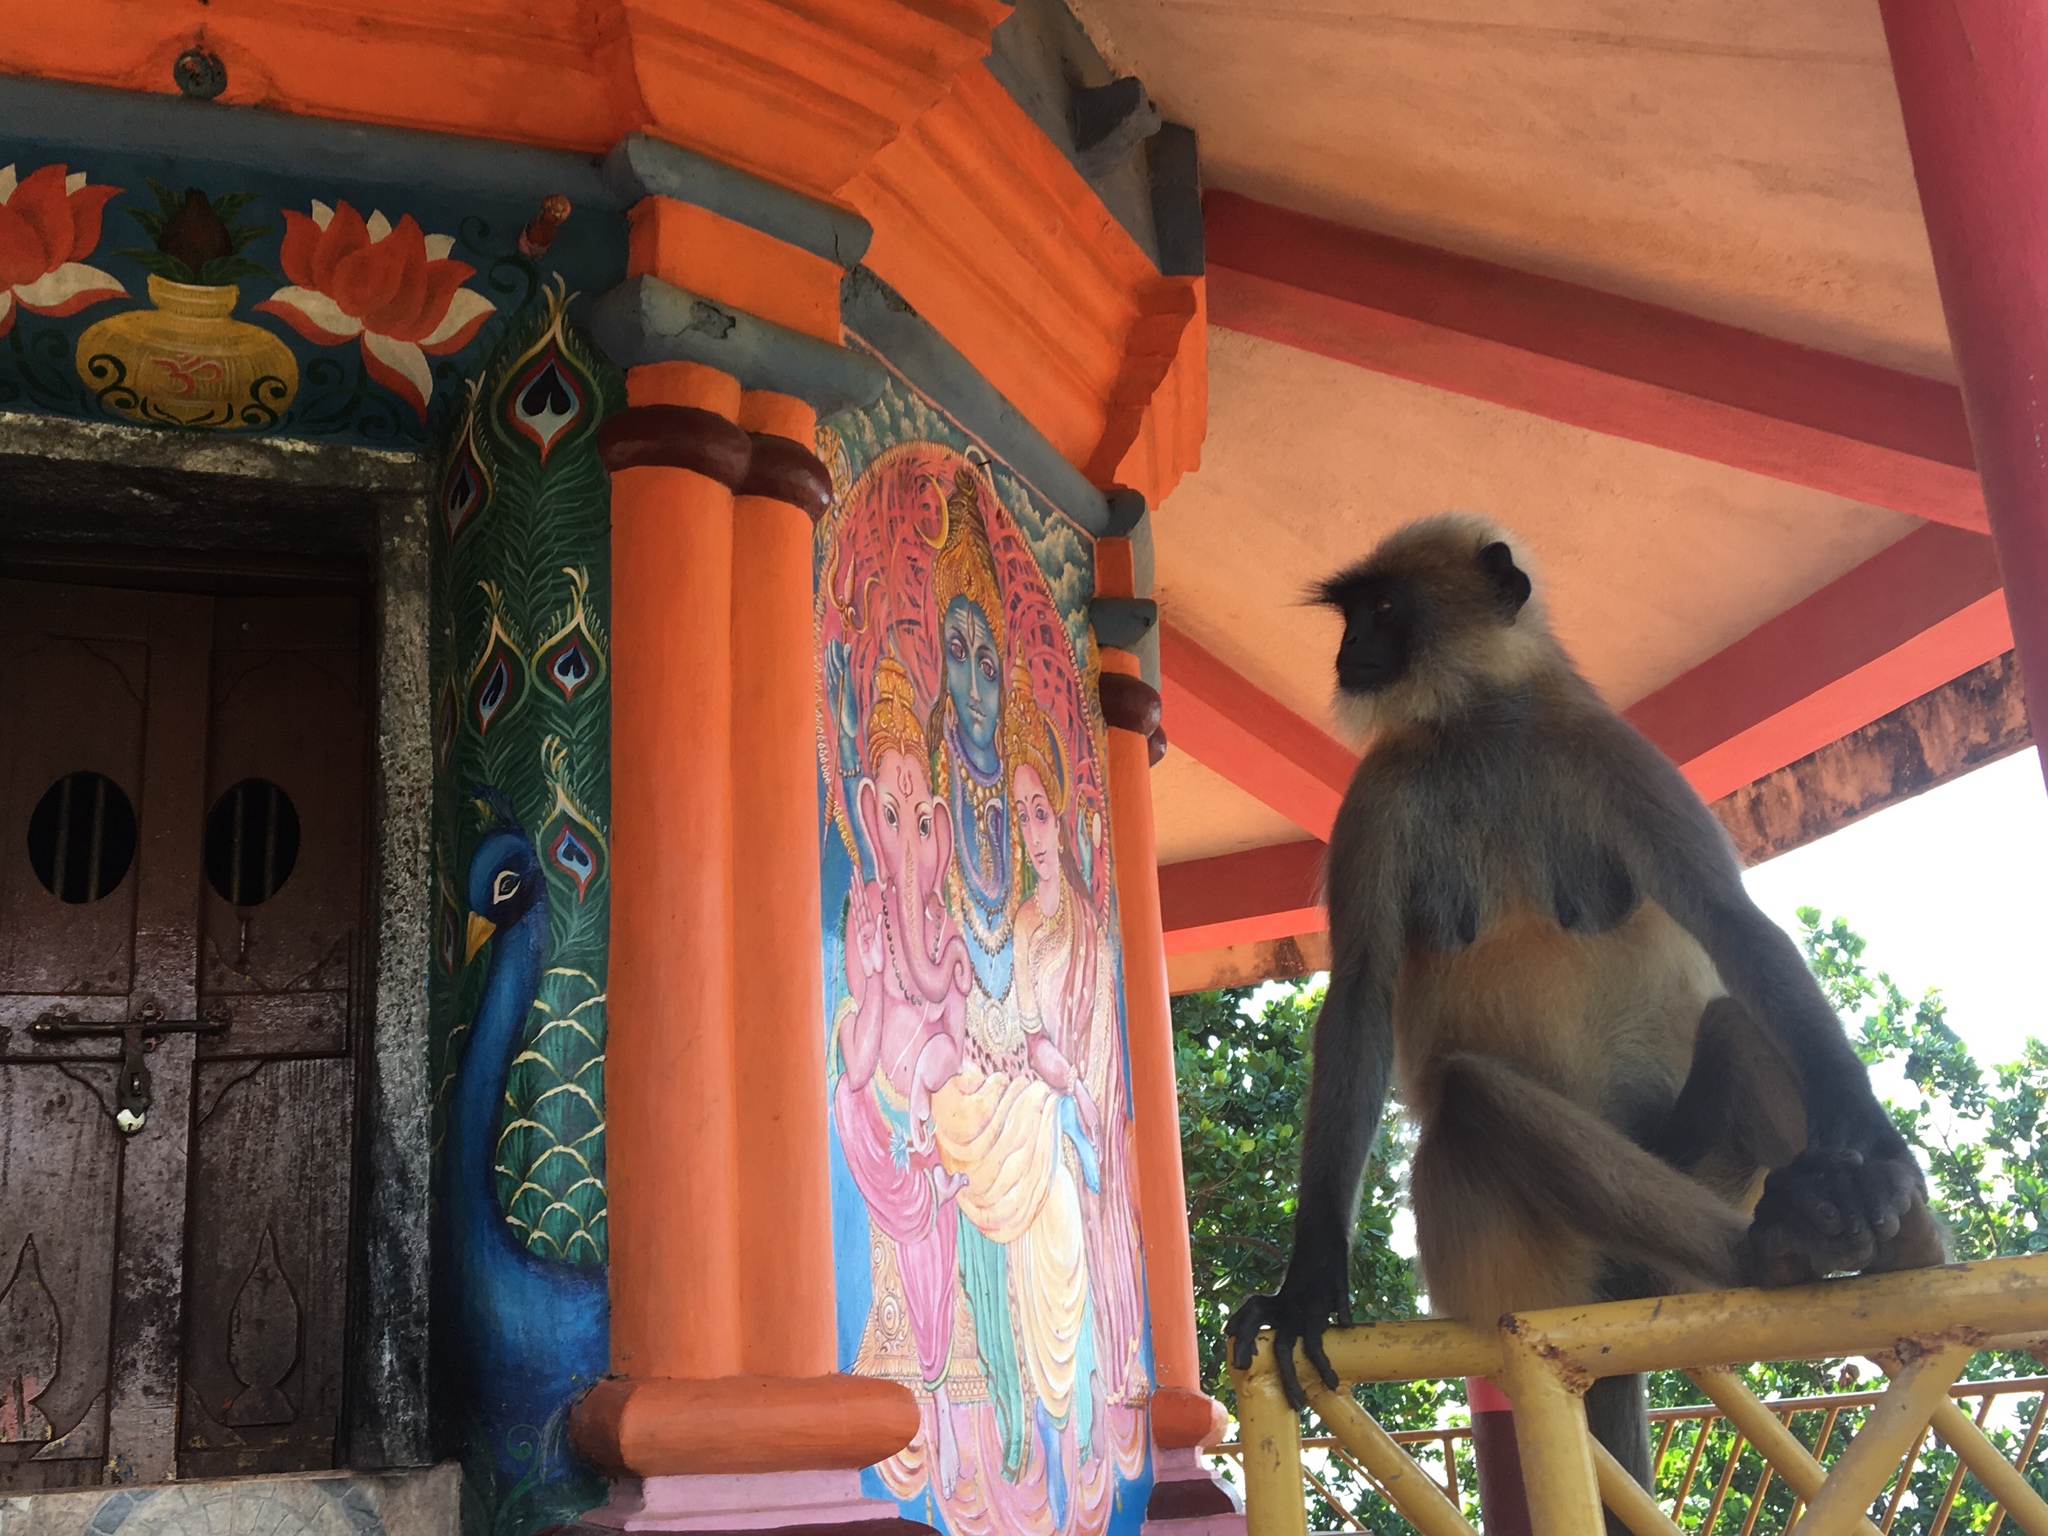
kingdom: Animalia
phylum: Chordata
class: Mammalia
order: Primates
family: Cercopithecidae
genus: Semnopithecus
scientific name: Semnopithecus hypoleucos
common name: Black-footed gray langur
